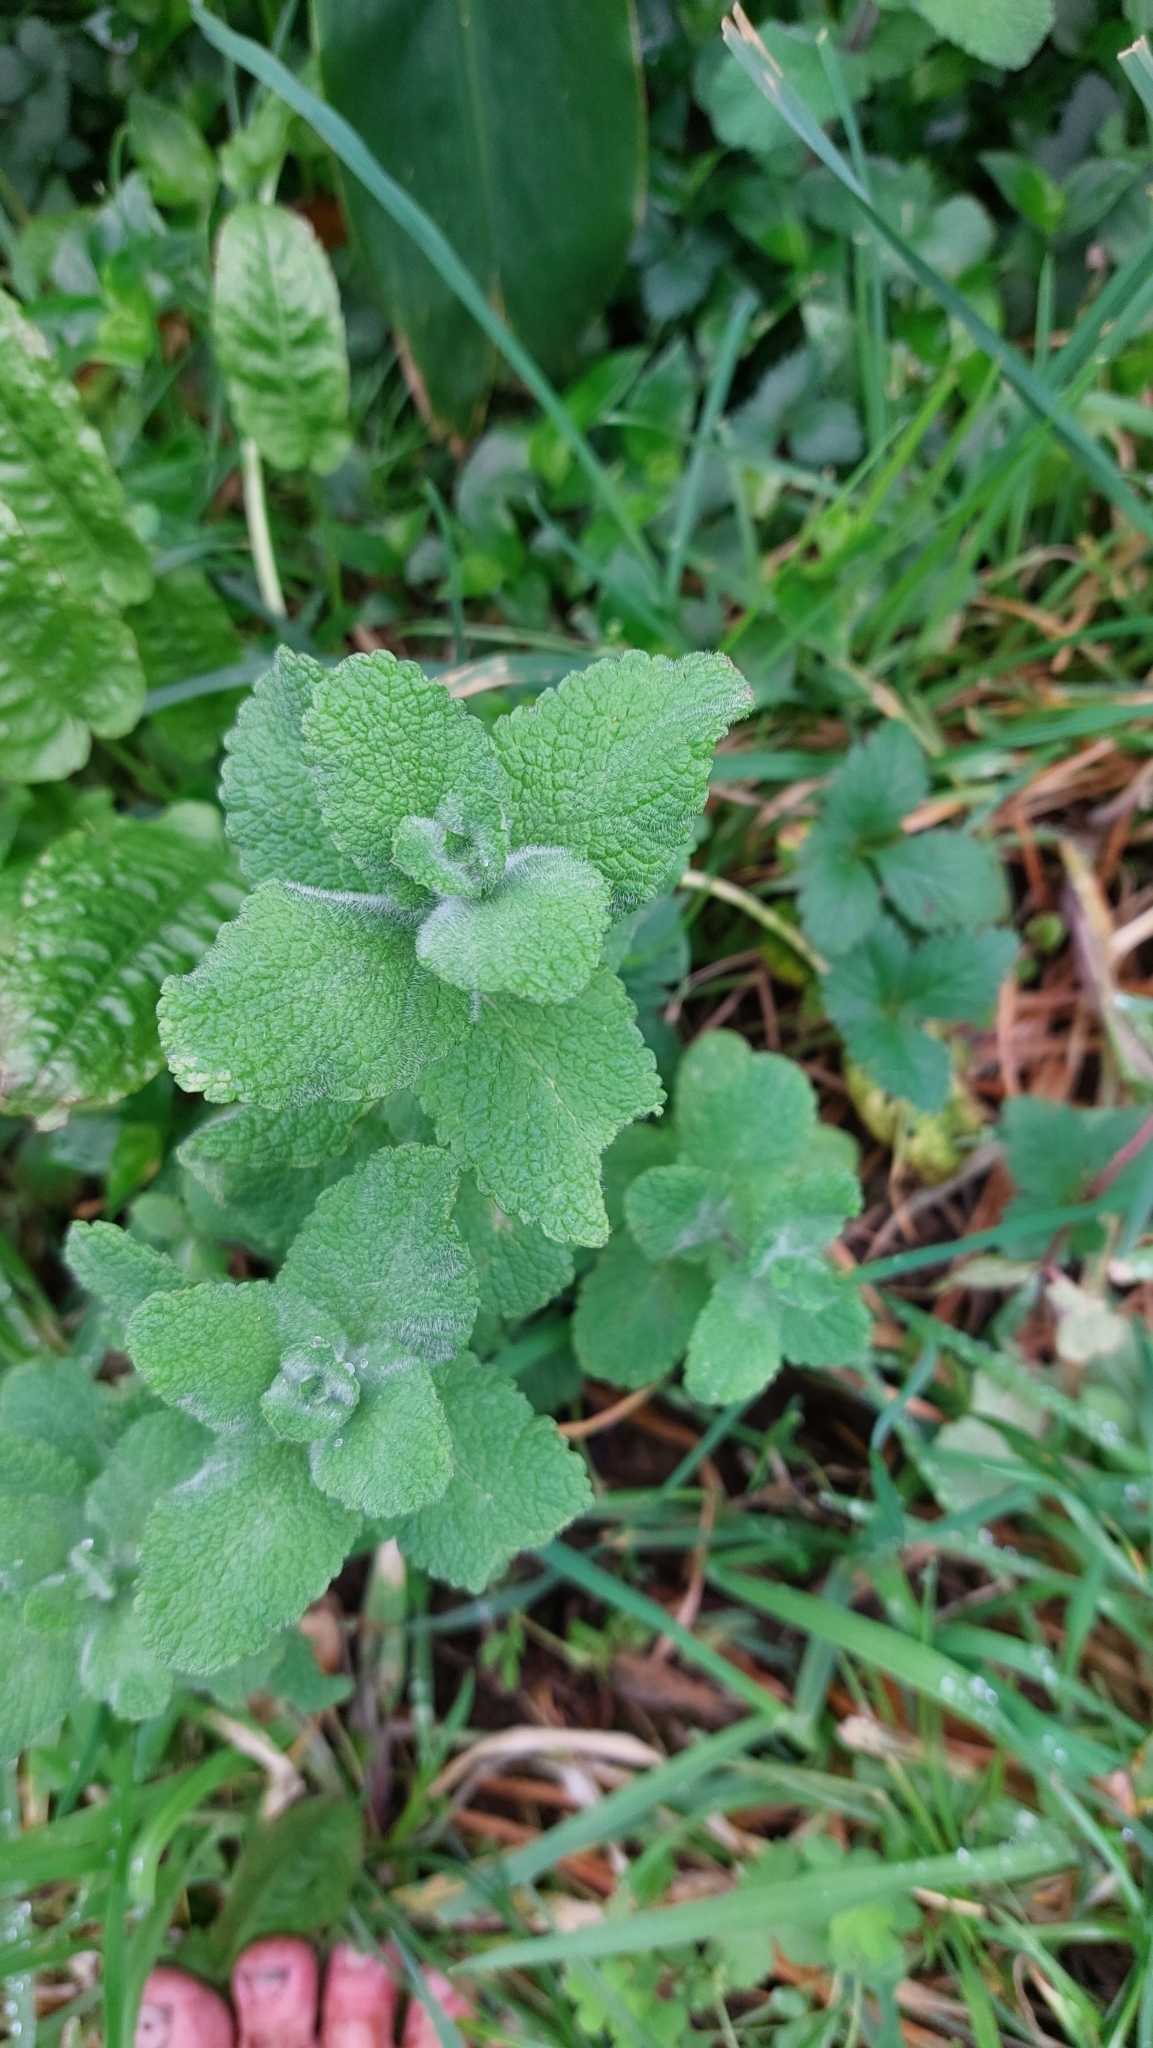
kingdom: Plantae
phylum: Tracheophyta
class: Magnoliopsida
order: Lamiales
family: Lamiaceae
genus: Mentha
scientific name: Mentha suaveolens
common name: Apple mint
